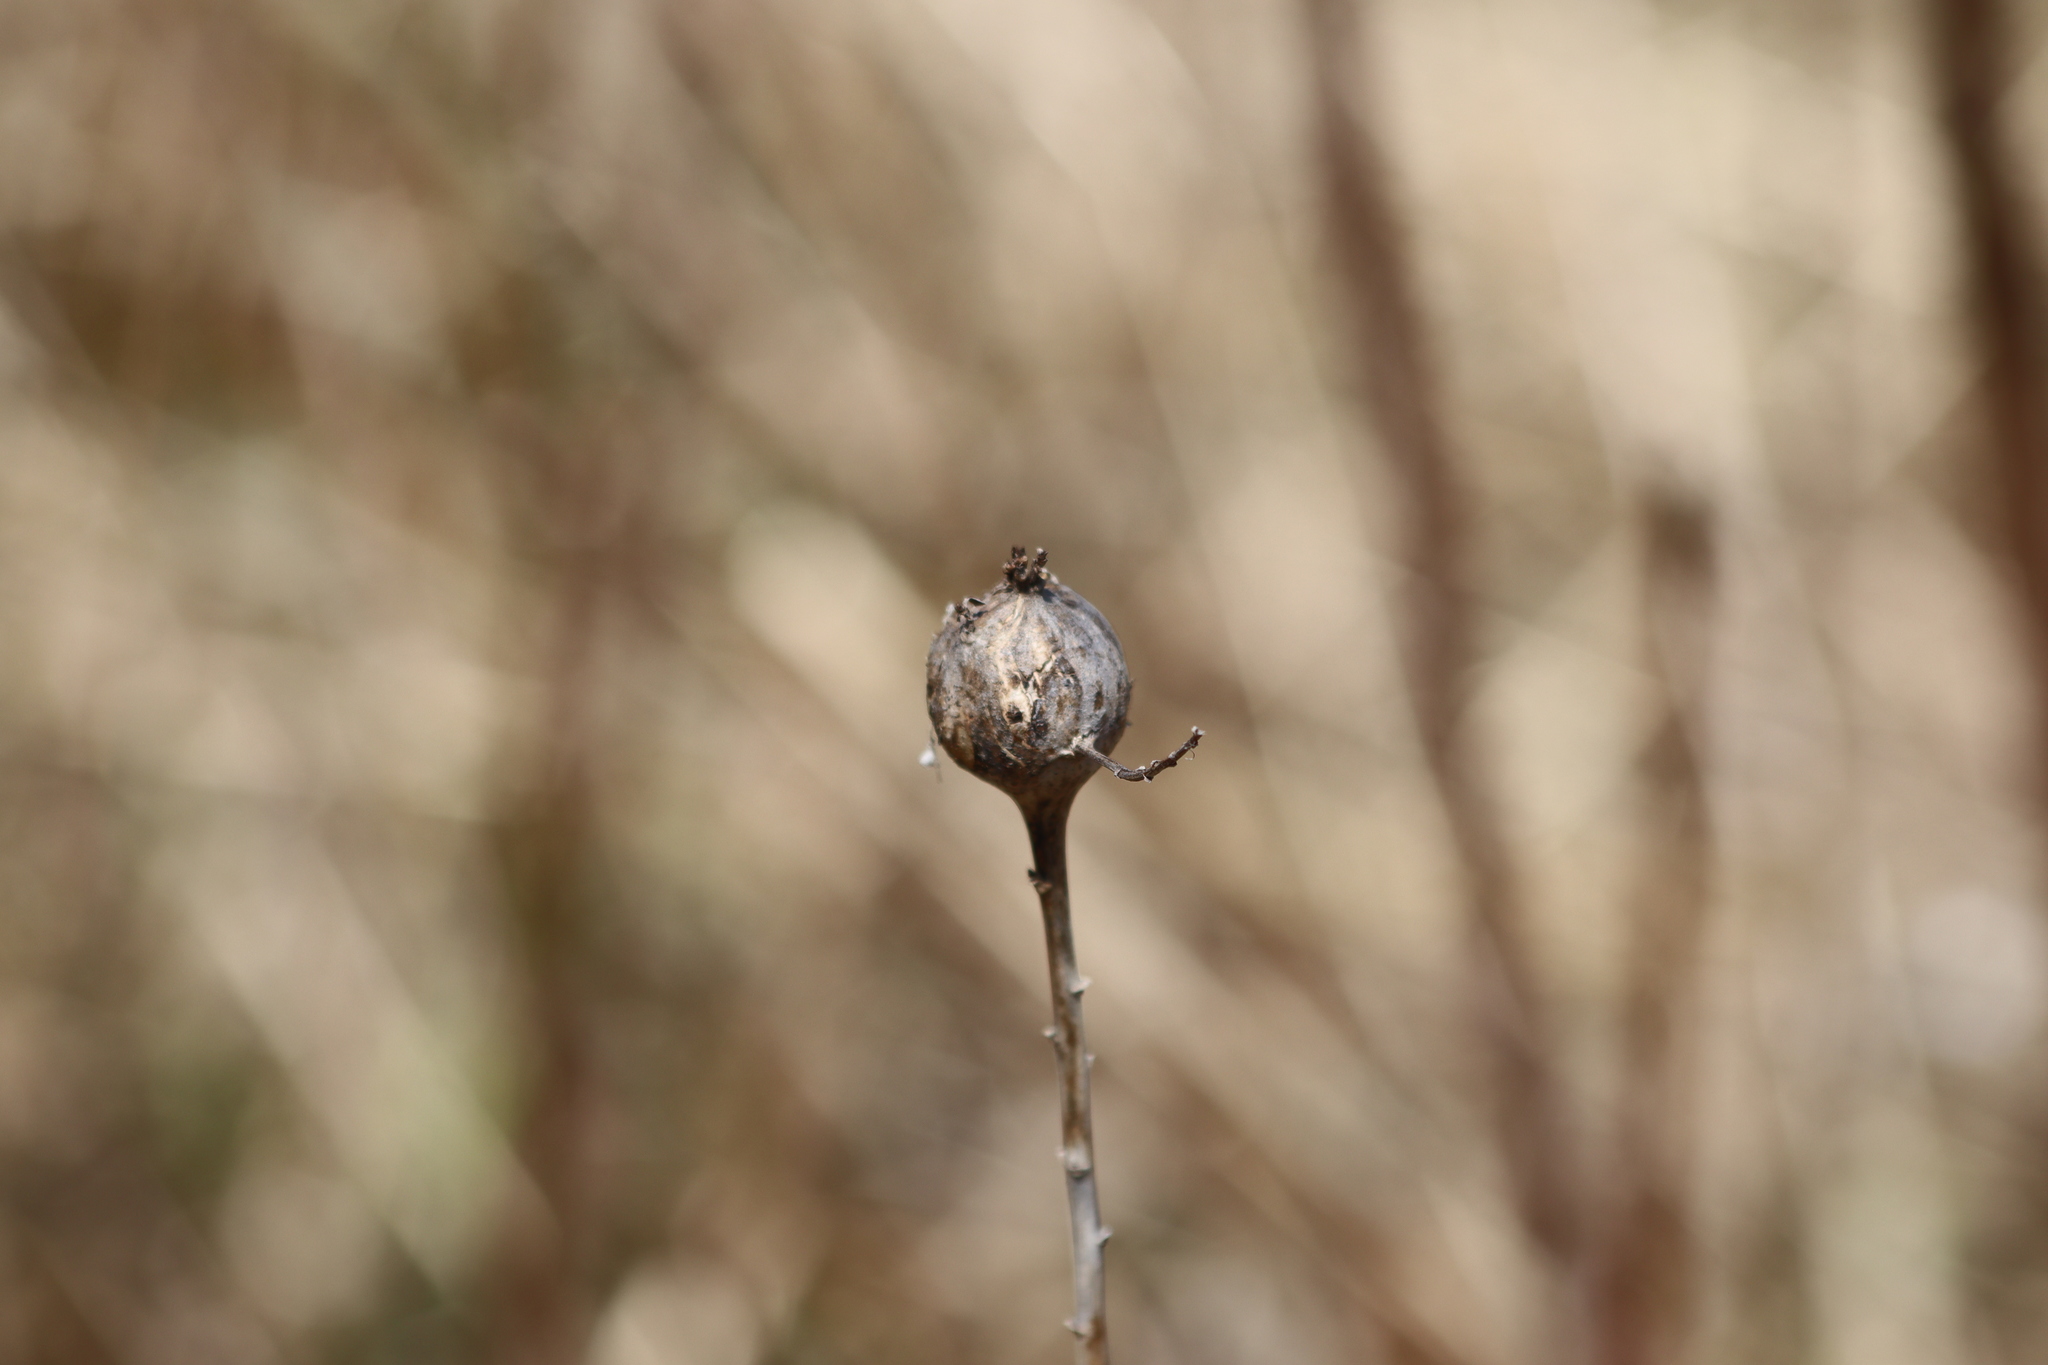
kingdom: Animalia
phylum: Arthropoda
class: Insecta
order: Diptera
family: Tephritidae
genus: Eurosta
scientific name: Eurosta solidaginis
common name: Goldenrod gall fly
